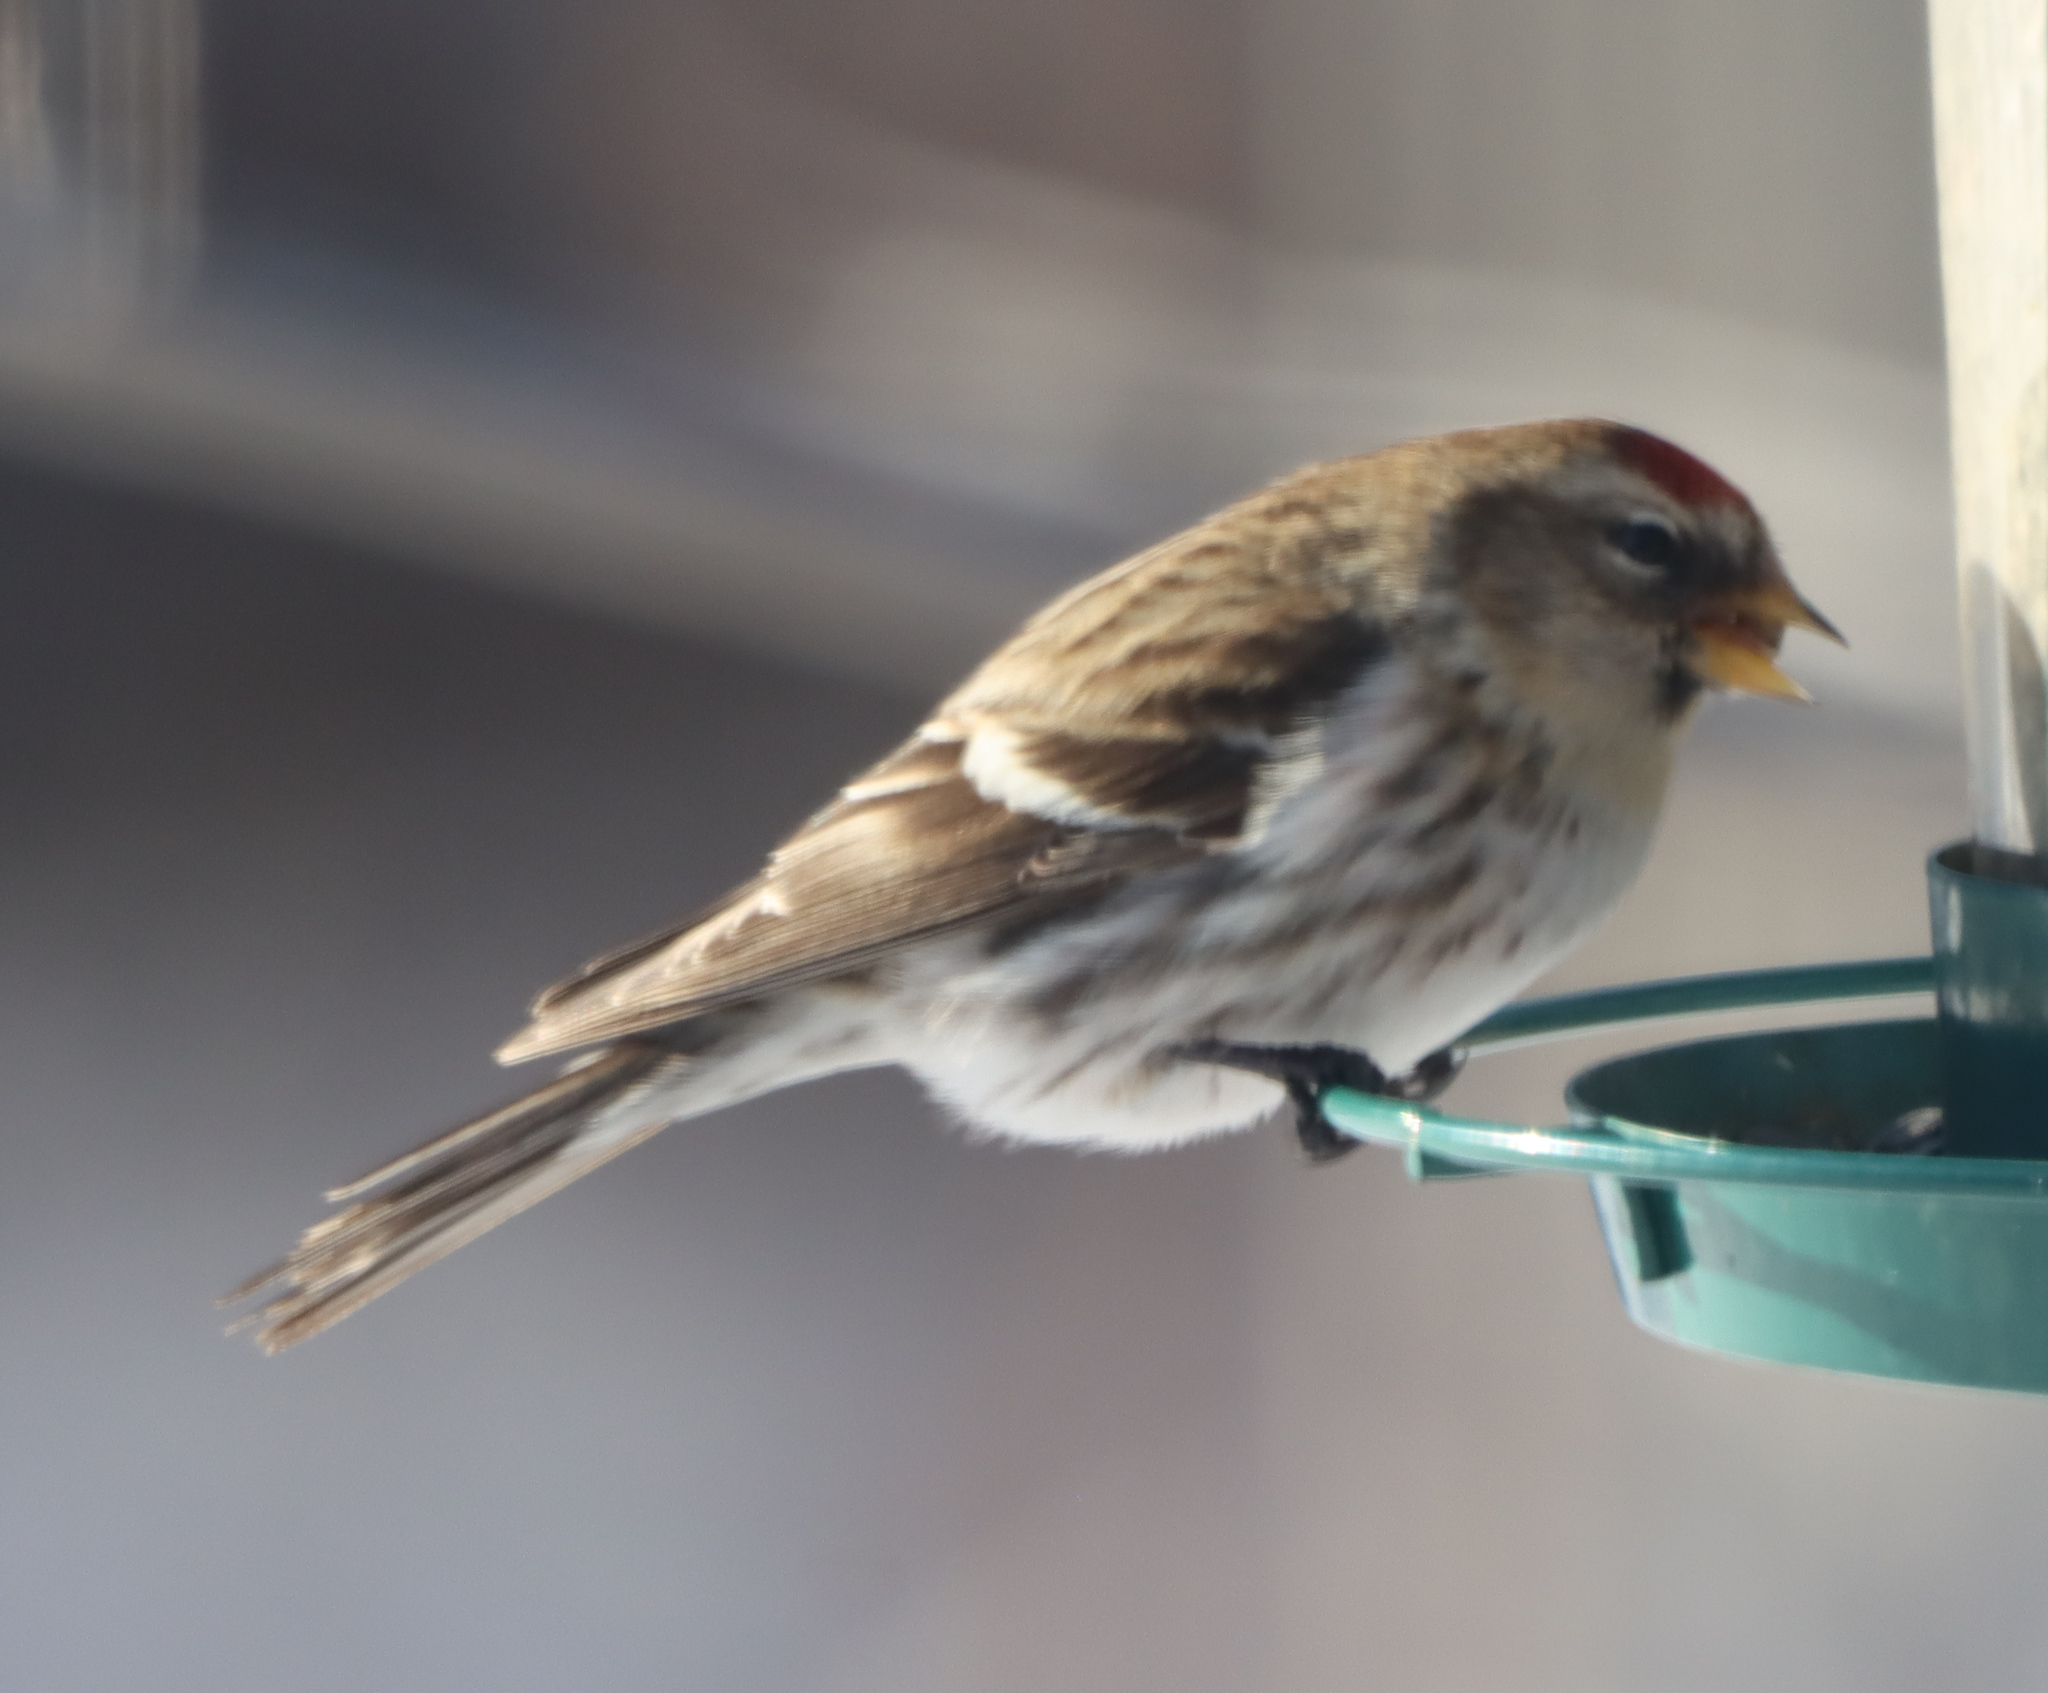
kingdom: Animalia
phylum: Chordata
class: Aves
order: Passeriformes
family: Fringillidae
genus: Acanthis
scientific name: Acanthis flammea
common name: Common redpoll
